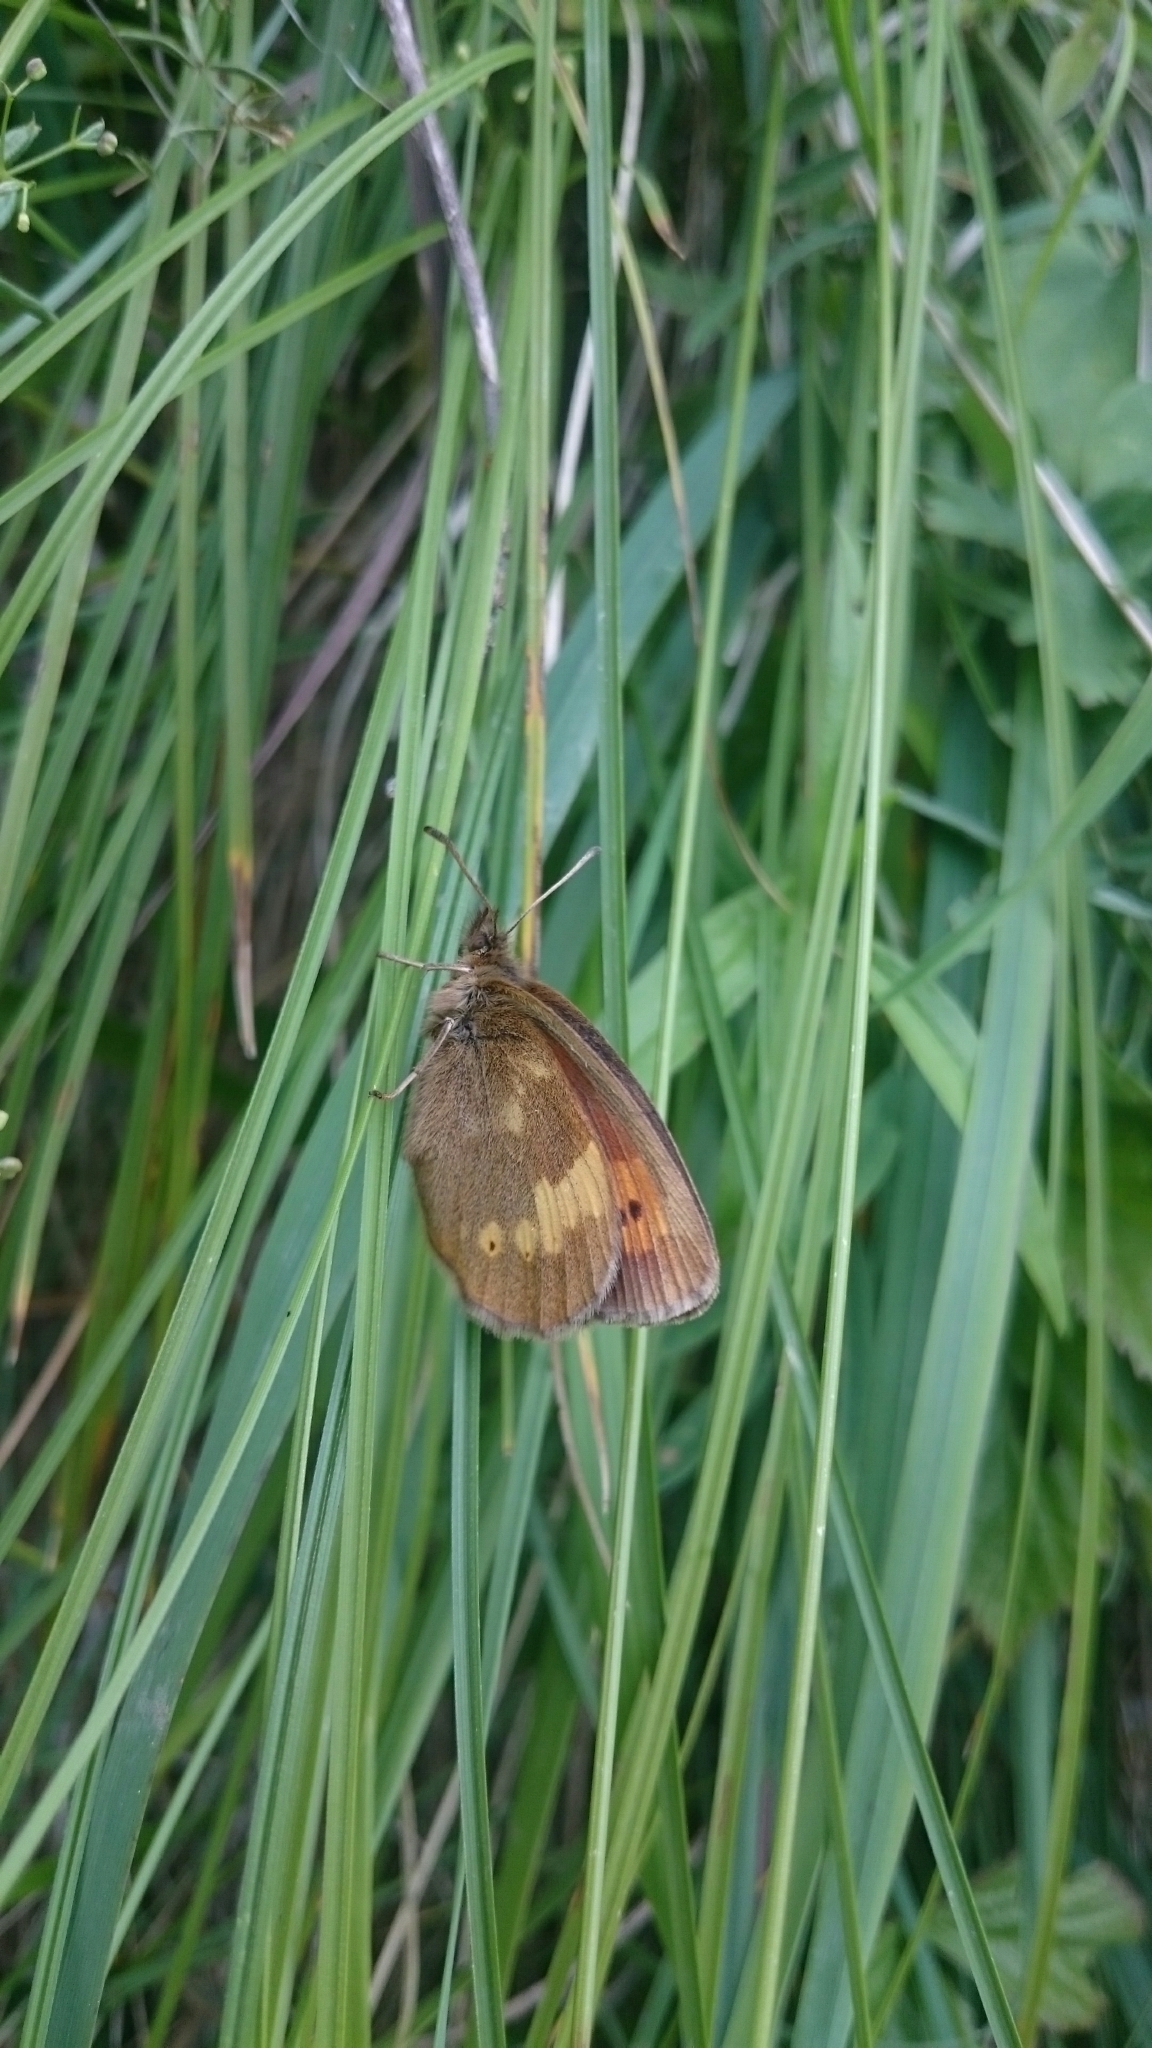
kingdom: Animalia
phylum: Arthropoda
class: Insecta
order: Lepidoptera
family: Nymphalidae
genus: Erebia
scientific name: Erebia manto
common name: Yellow-spotted ringlet
